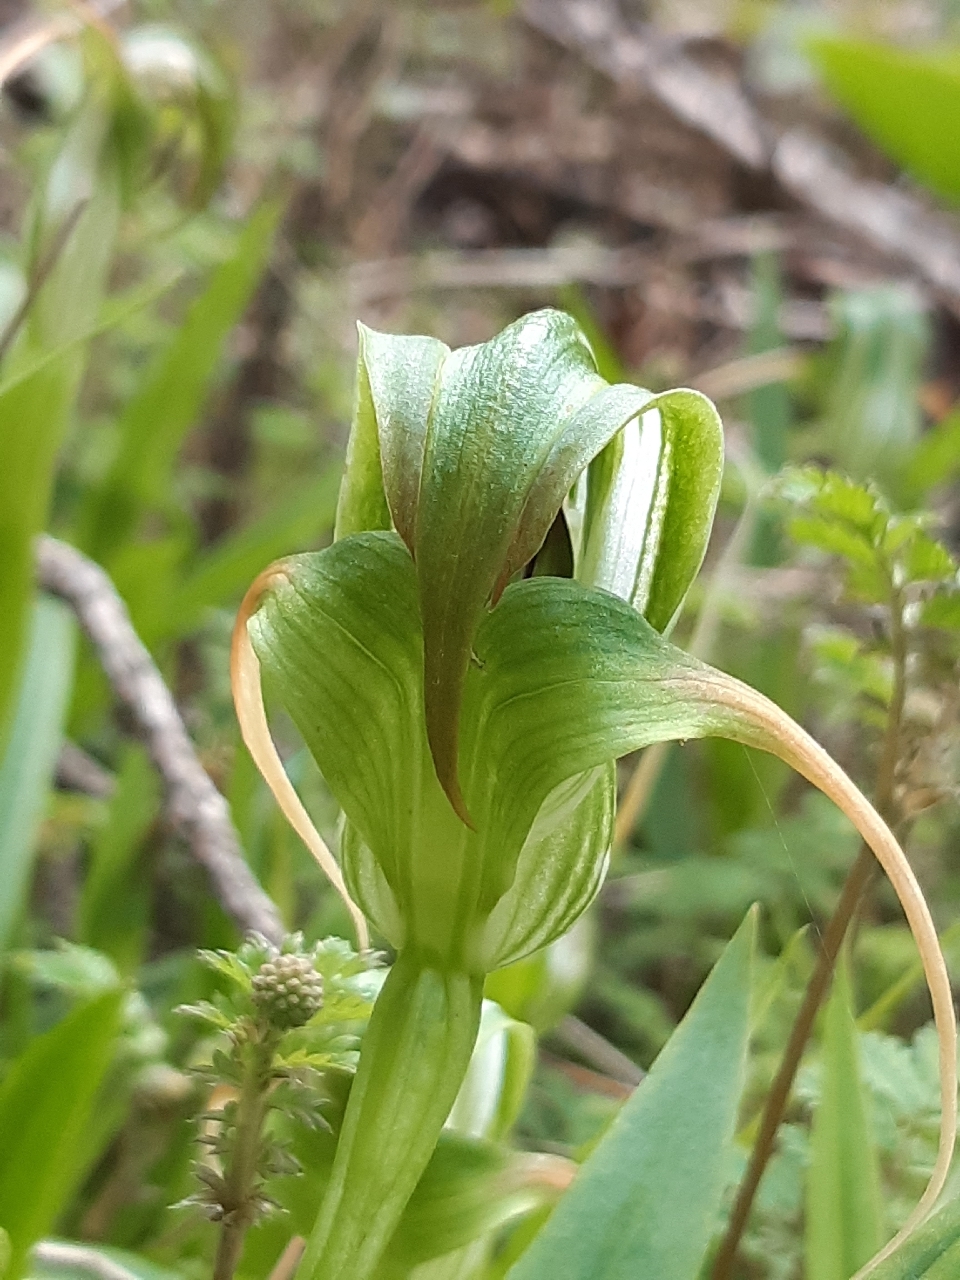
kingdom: Plantae
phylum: Tracheophyta
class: Liliopsida
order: Asparagales
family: Orchidaceae
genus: Pterostylis
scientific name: Pterostylis patens
